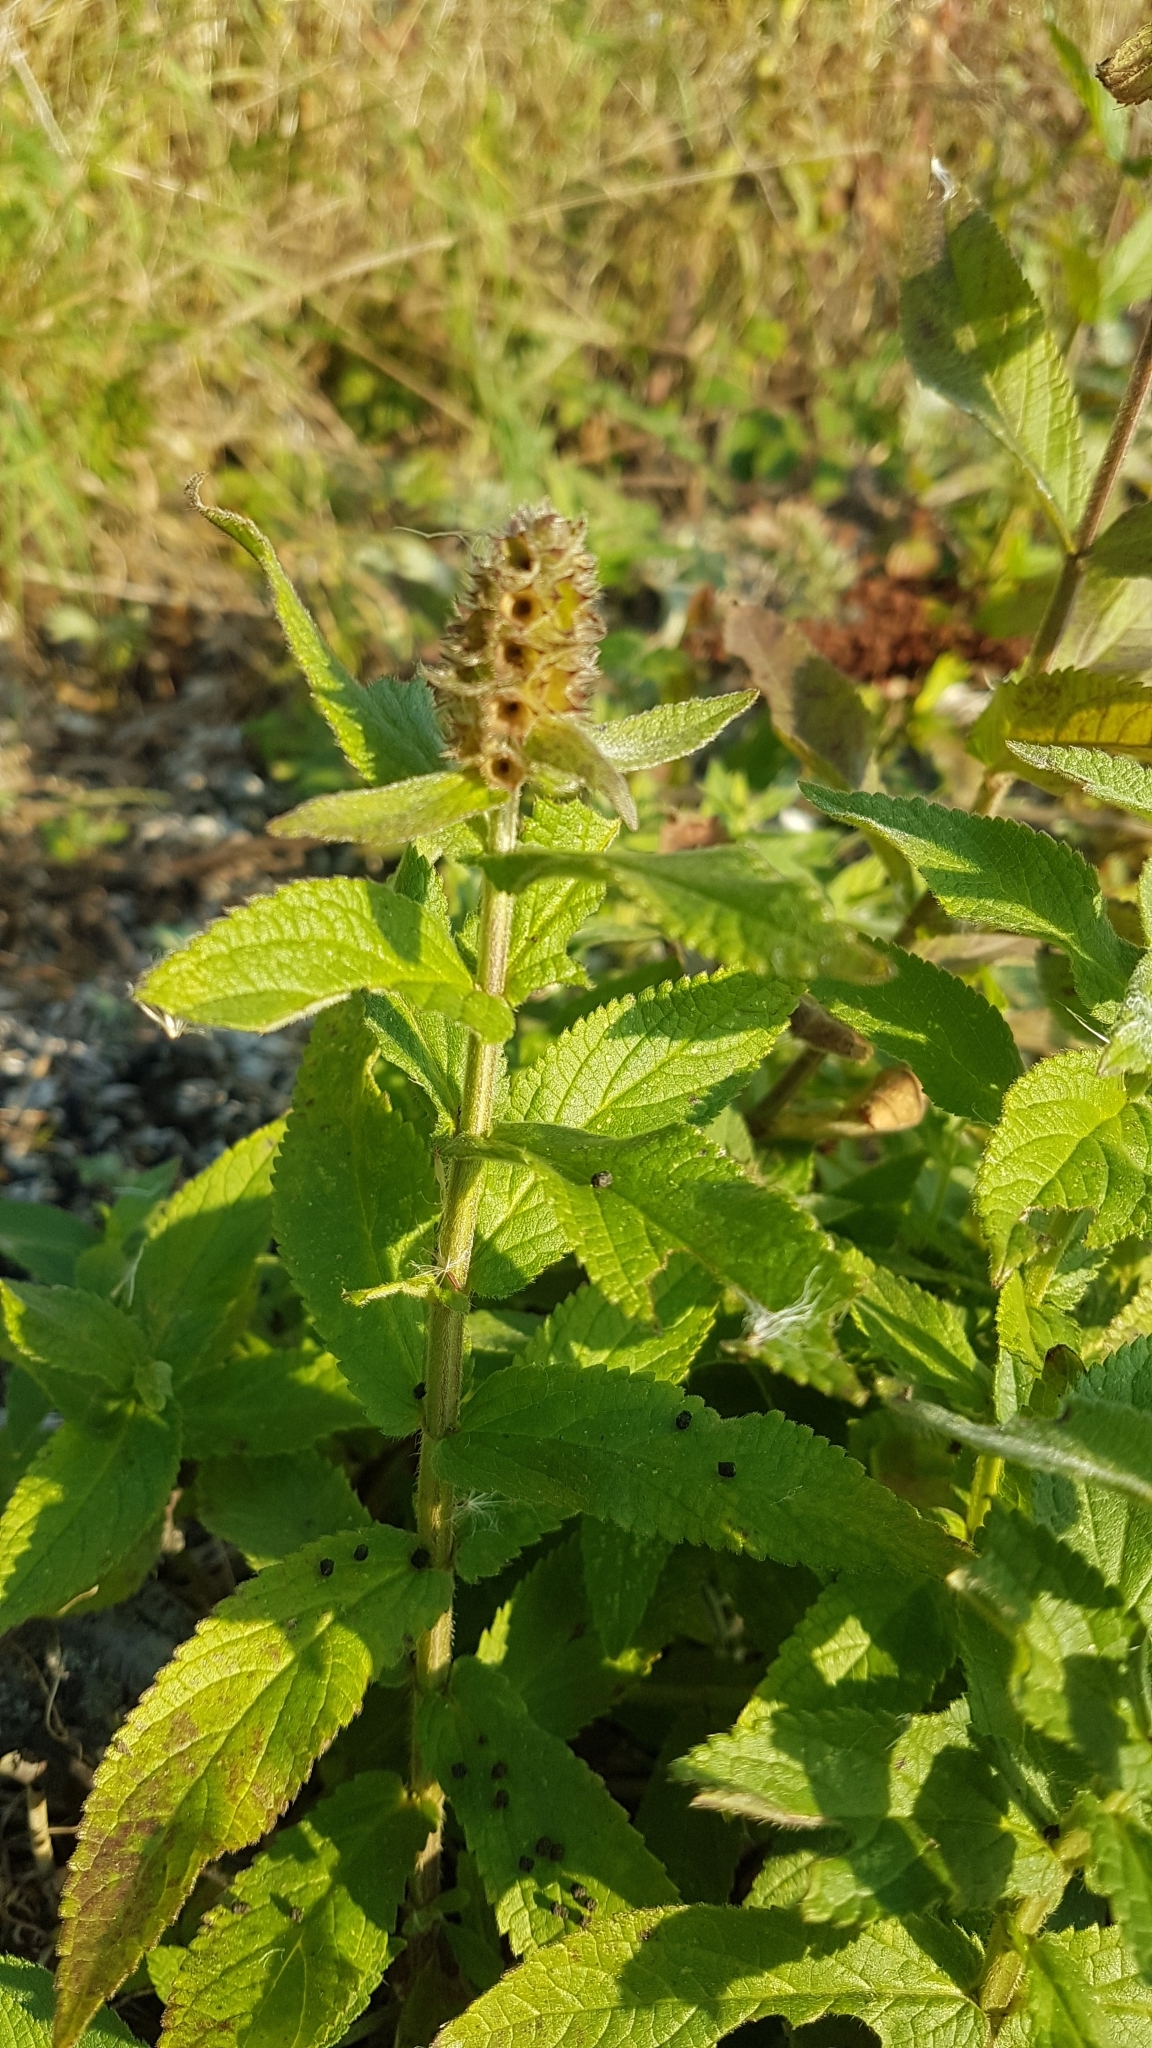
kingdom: Plantae
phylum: Tracheophyta
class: Magnoliopsida
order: Lamiales
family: Lamiaceae
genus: Stachys
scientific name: Stachys palustris
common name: Marsh woundwort
